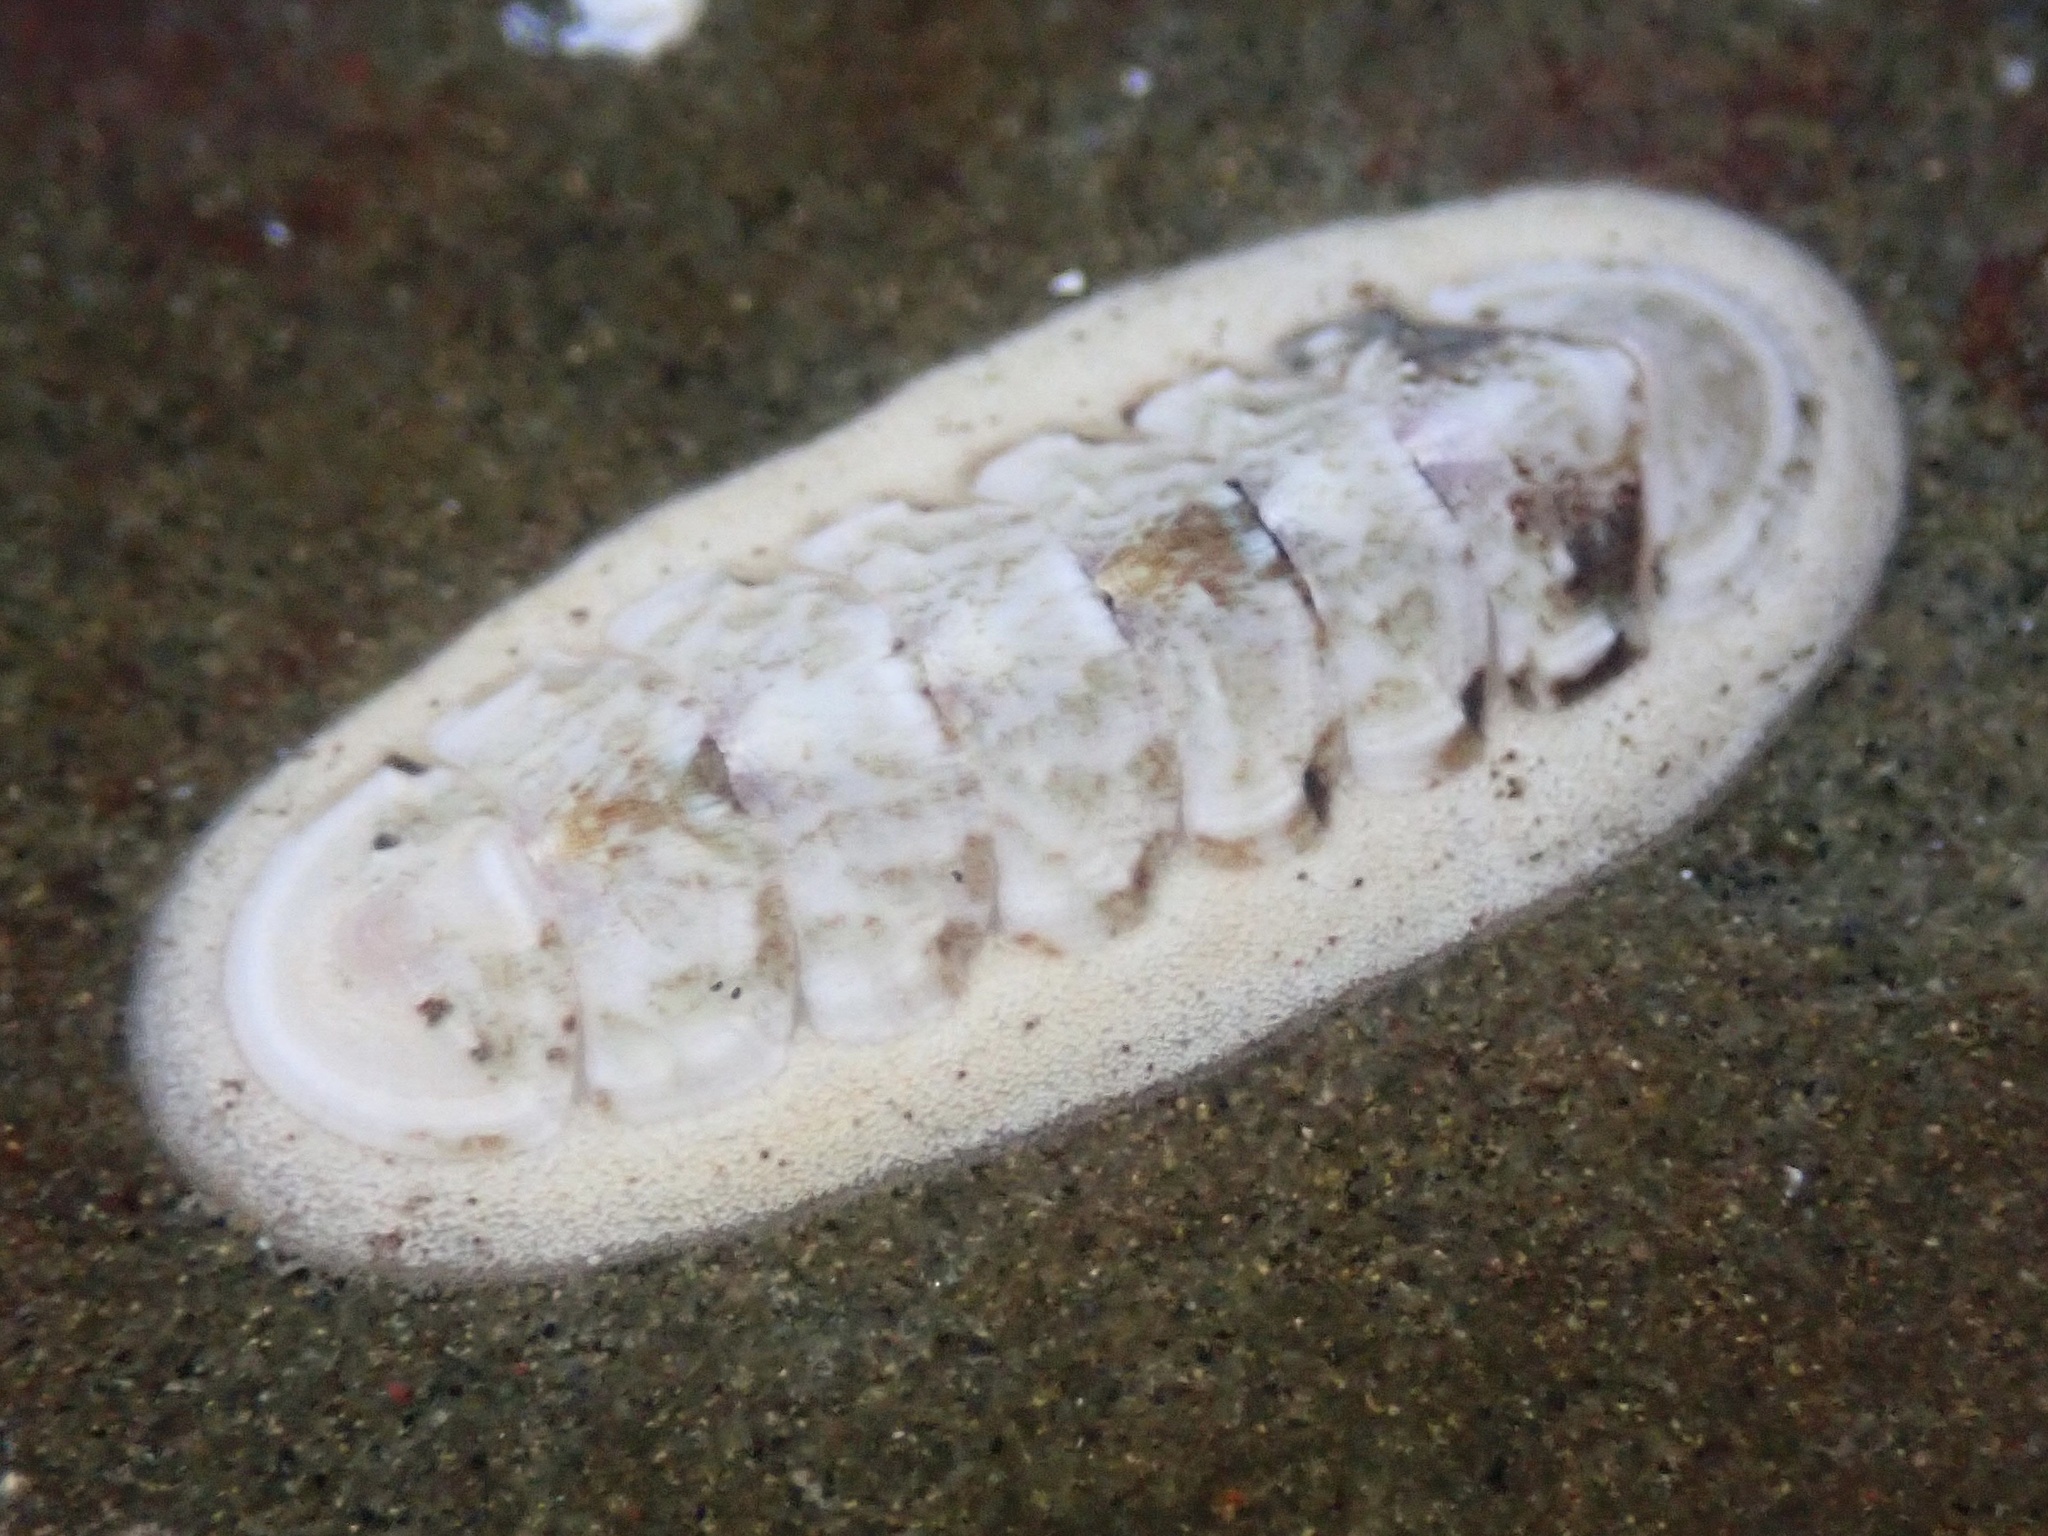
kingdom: Animalia
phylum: Mollusca
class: Polyplacophora
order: Chitonida
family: Ischnochitonidae
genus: Stenoplax
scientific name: Stenoplax heathiana
